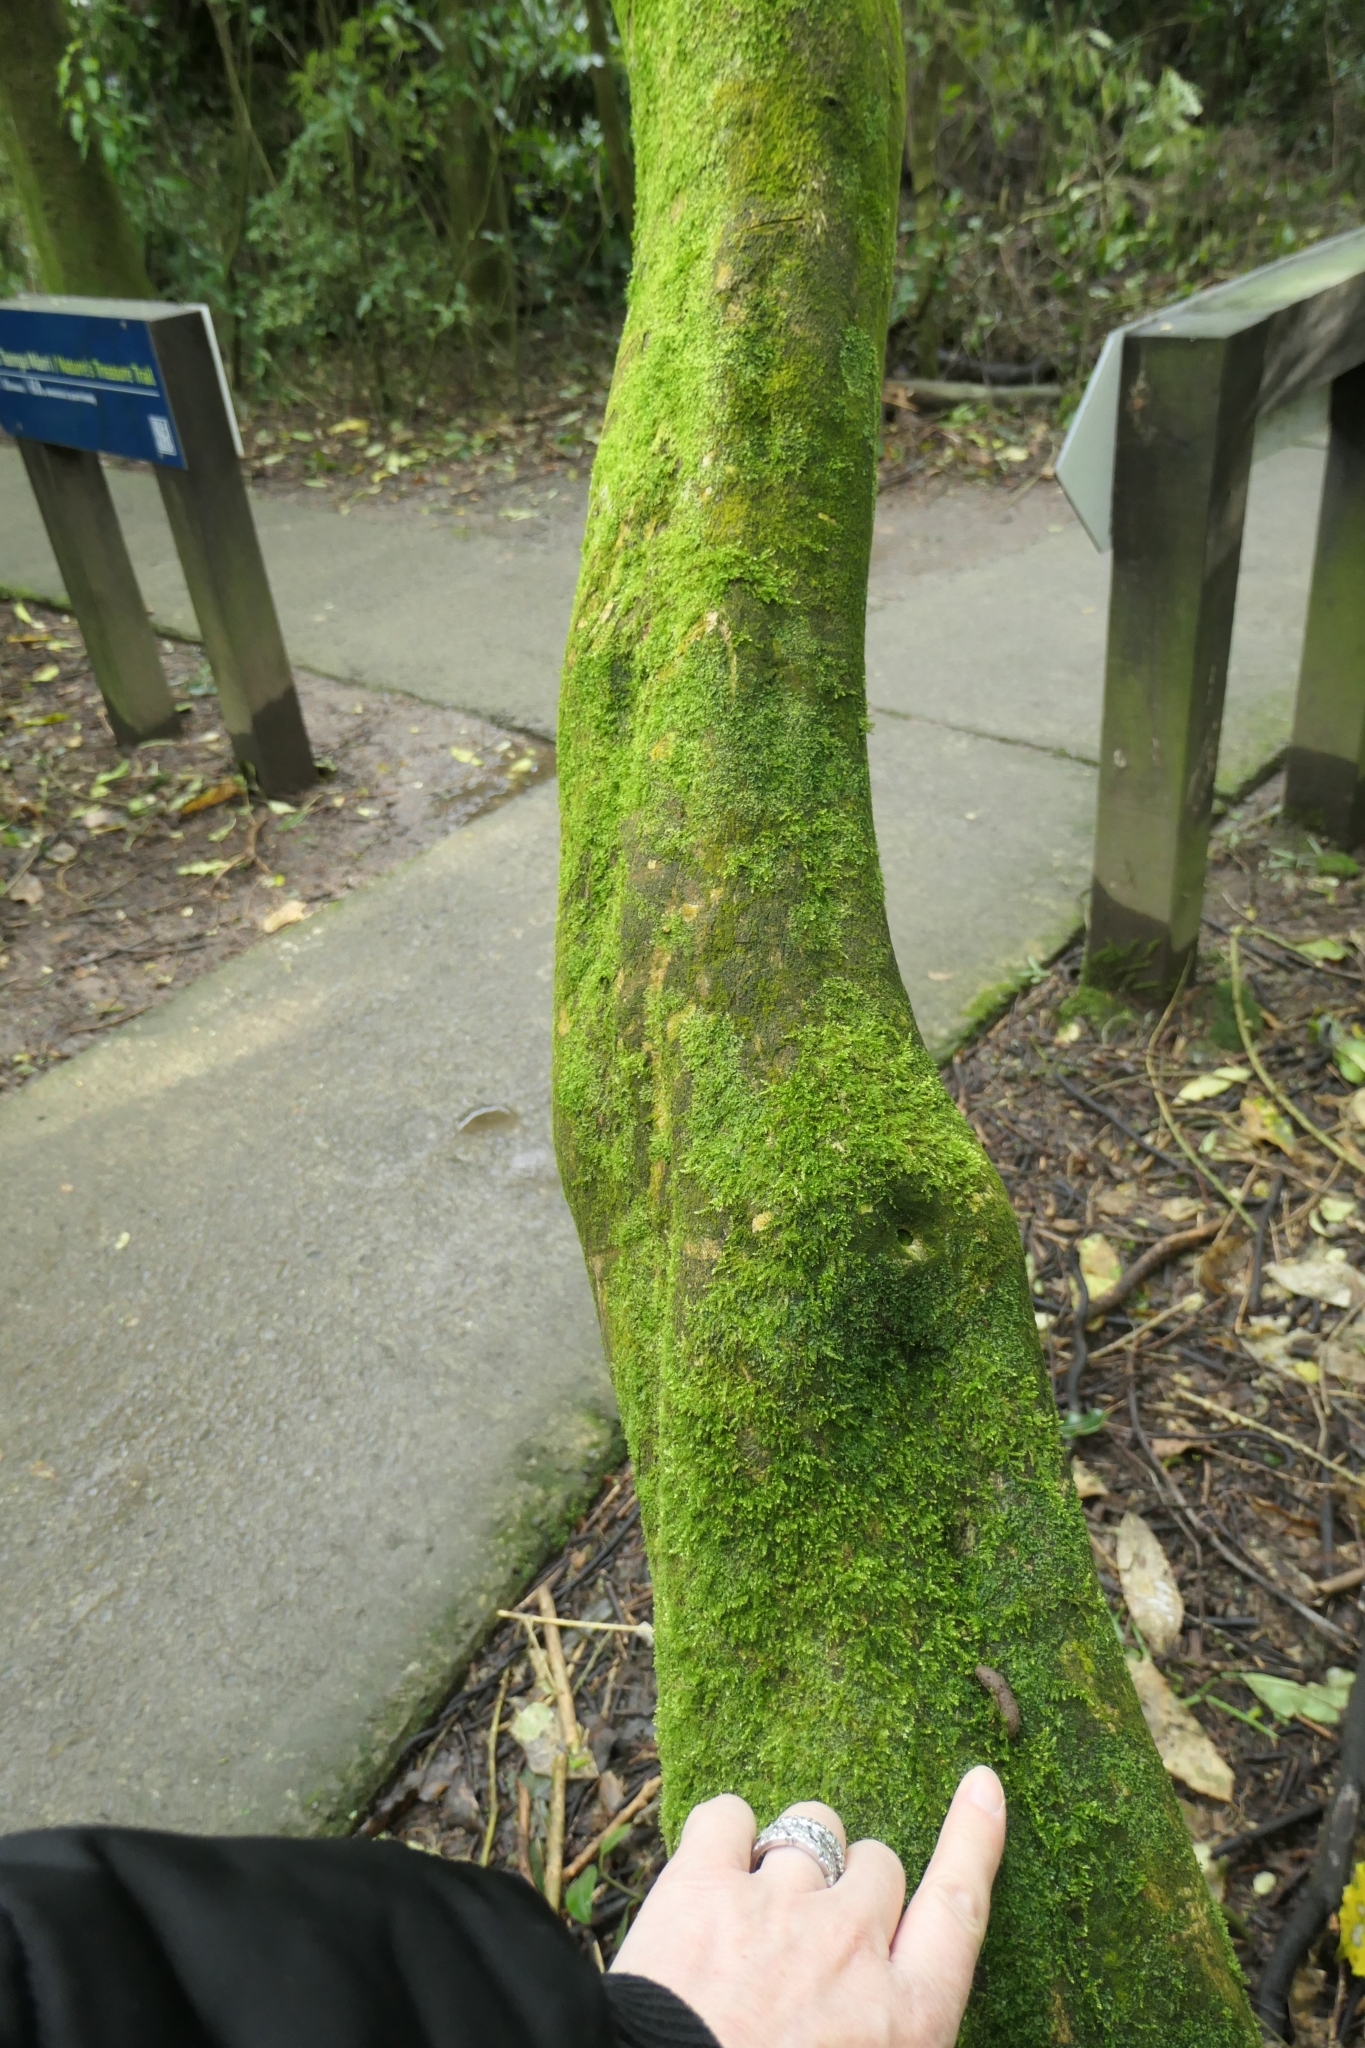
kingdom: Animalia
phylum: Chordata
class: Mammalia
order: Diprotodontia
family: Phalangeridae
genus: Trichosurus
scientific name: Trichosurus vulpecula
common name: Common brushtail
